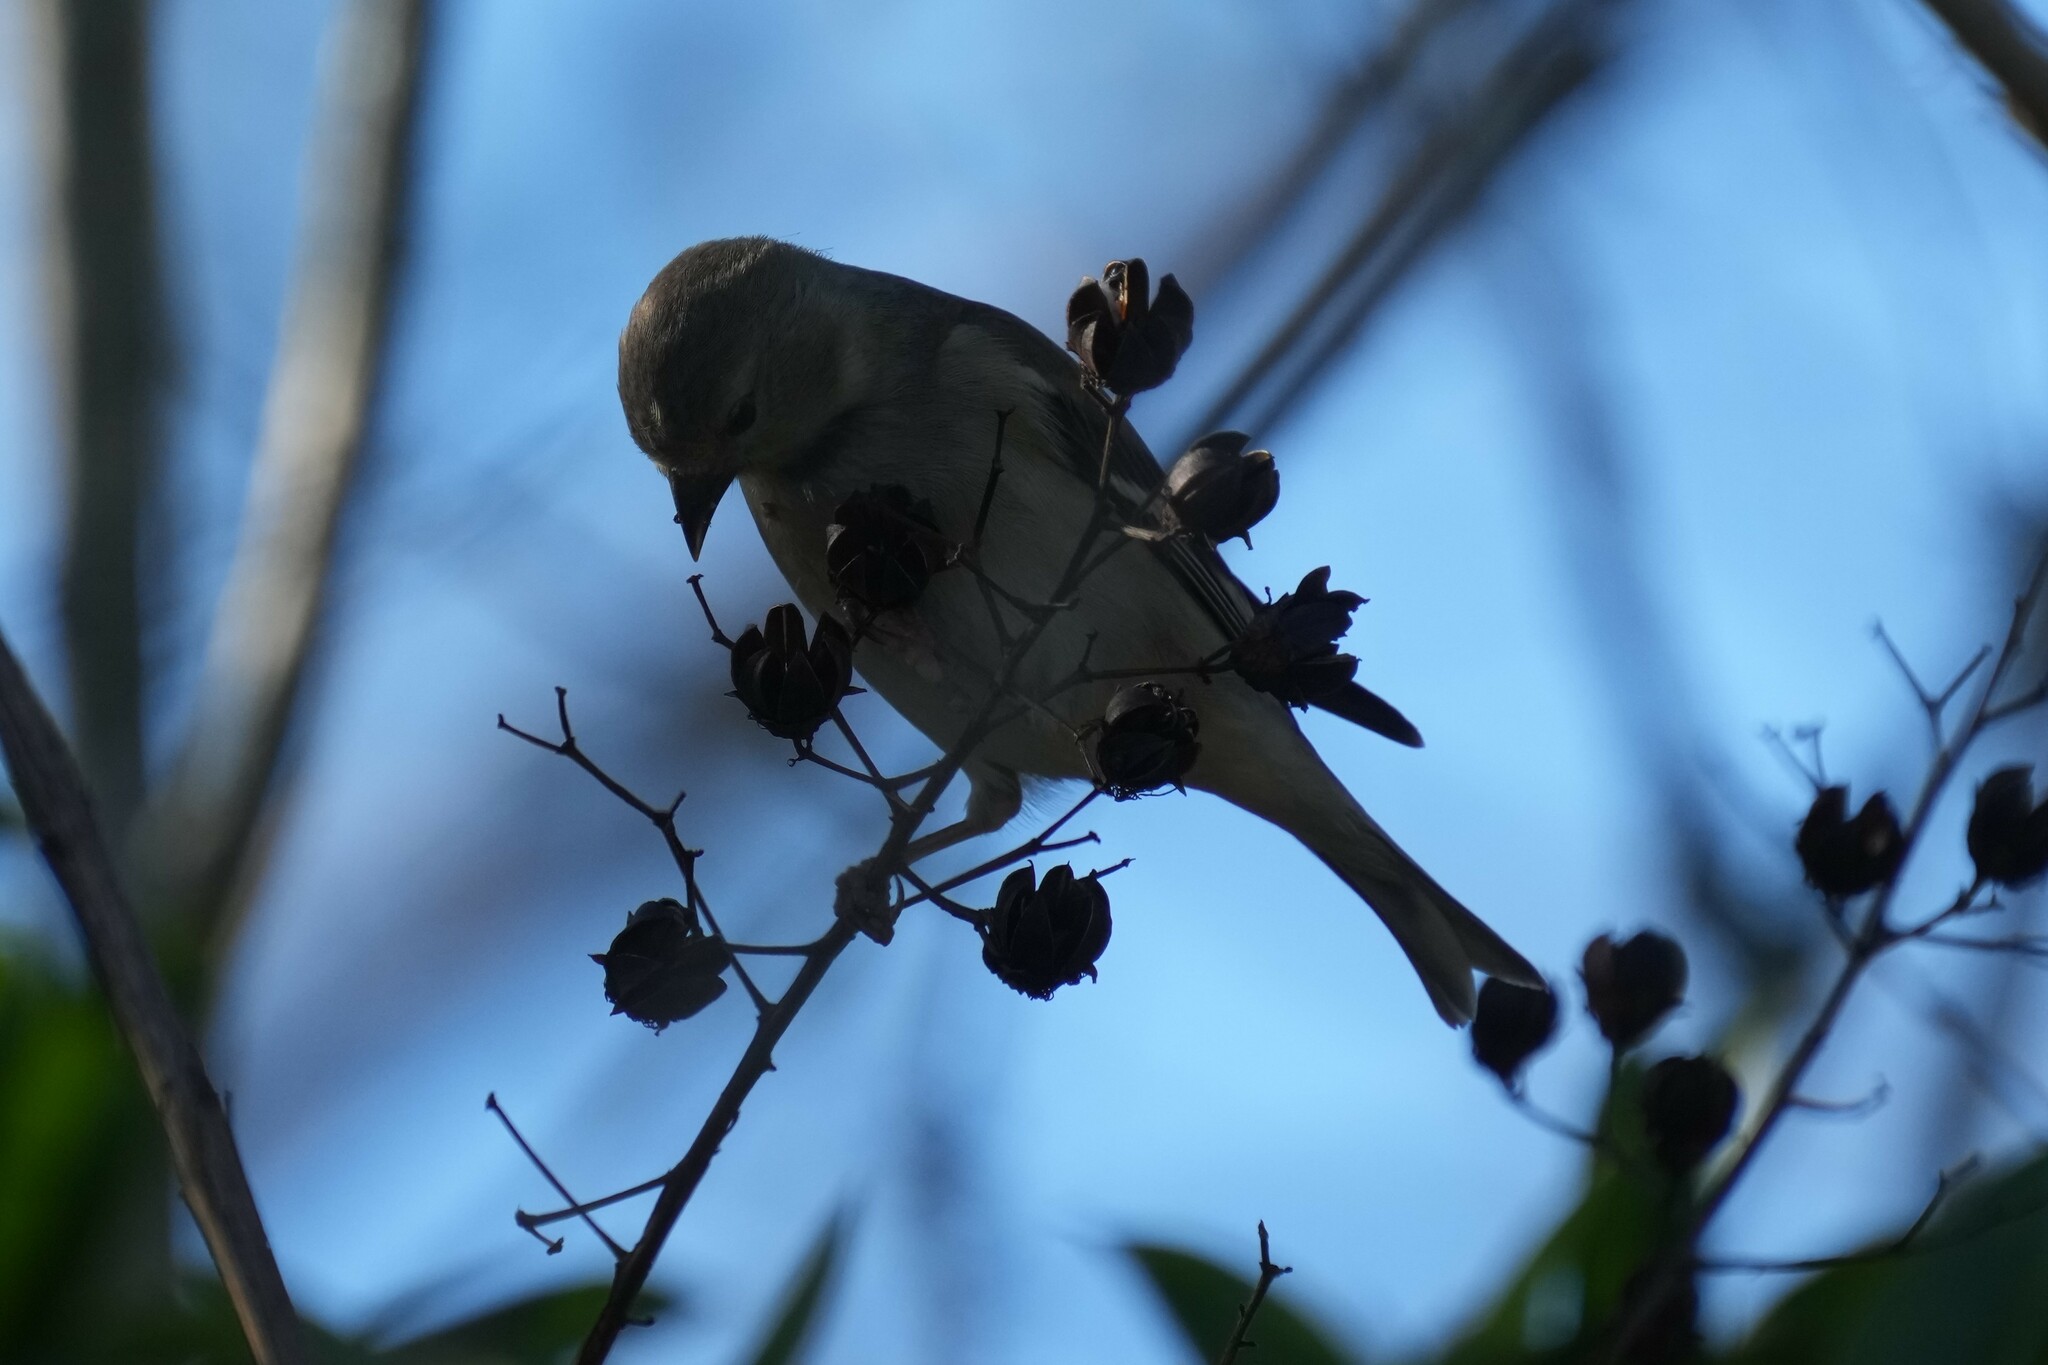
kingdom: Animalia
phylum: Chordata
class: Aves
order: Passeriformes
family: Fringillidae
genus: Spinus
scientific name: Spinus tristis
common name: American goldfinch
